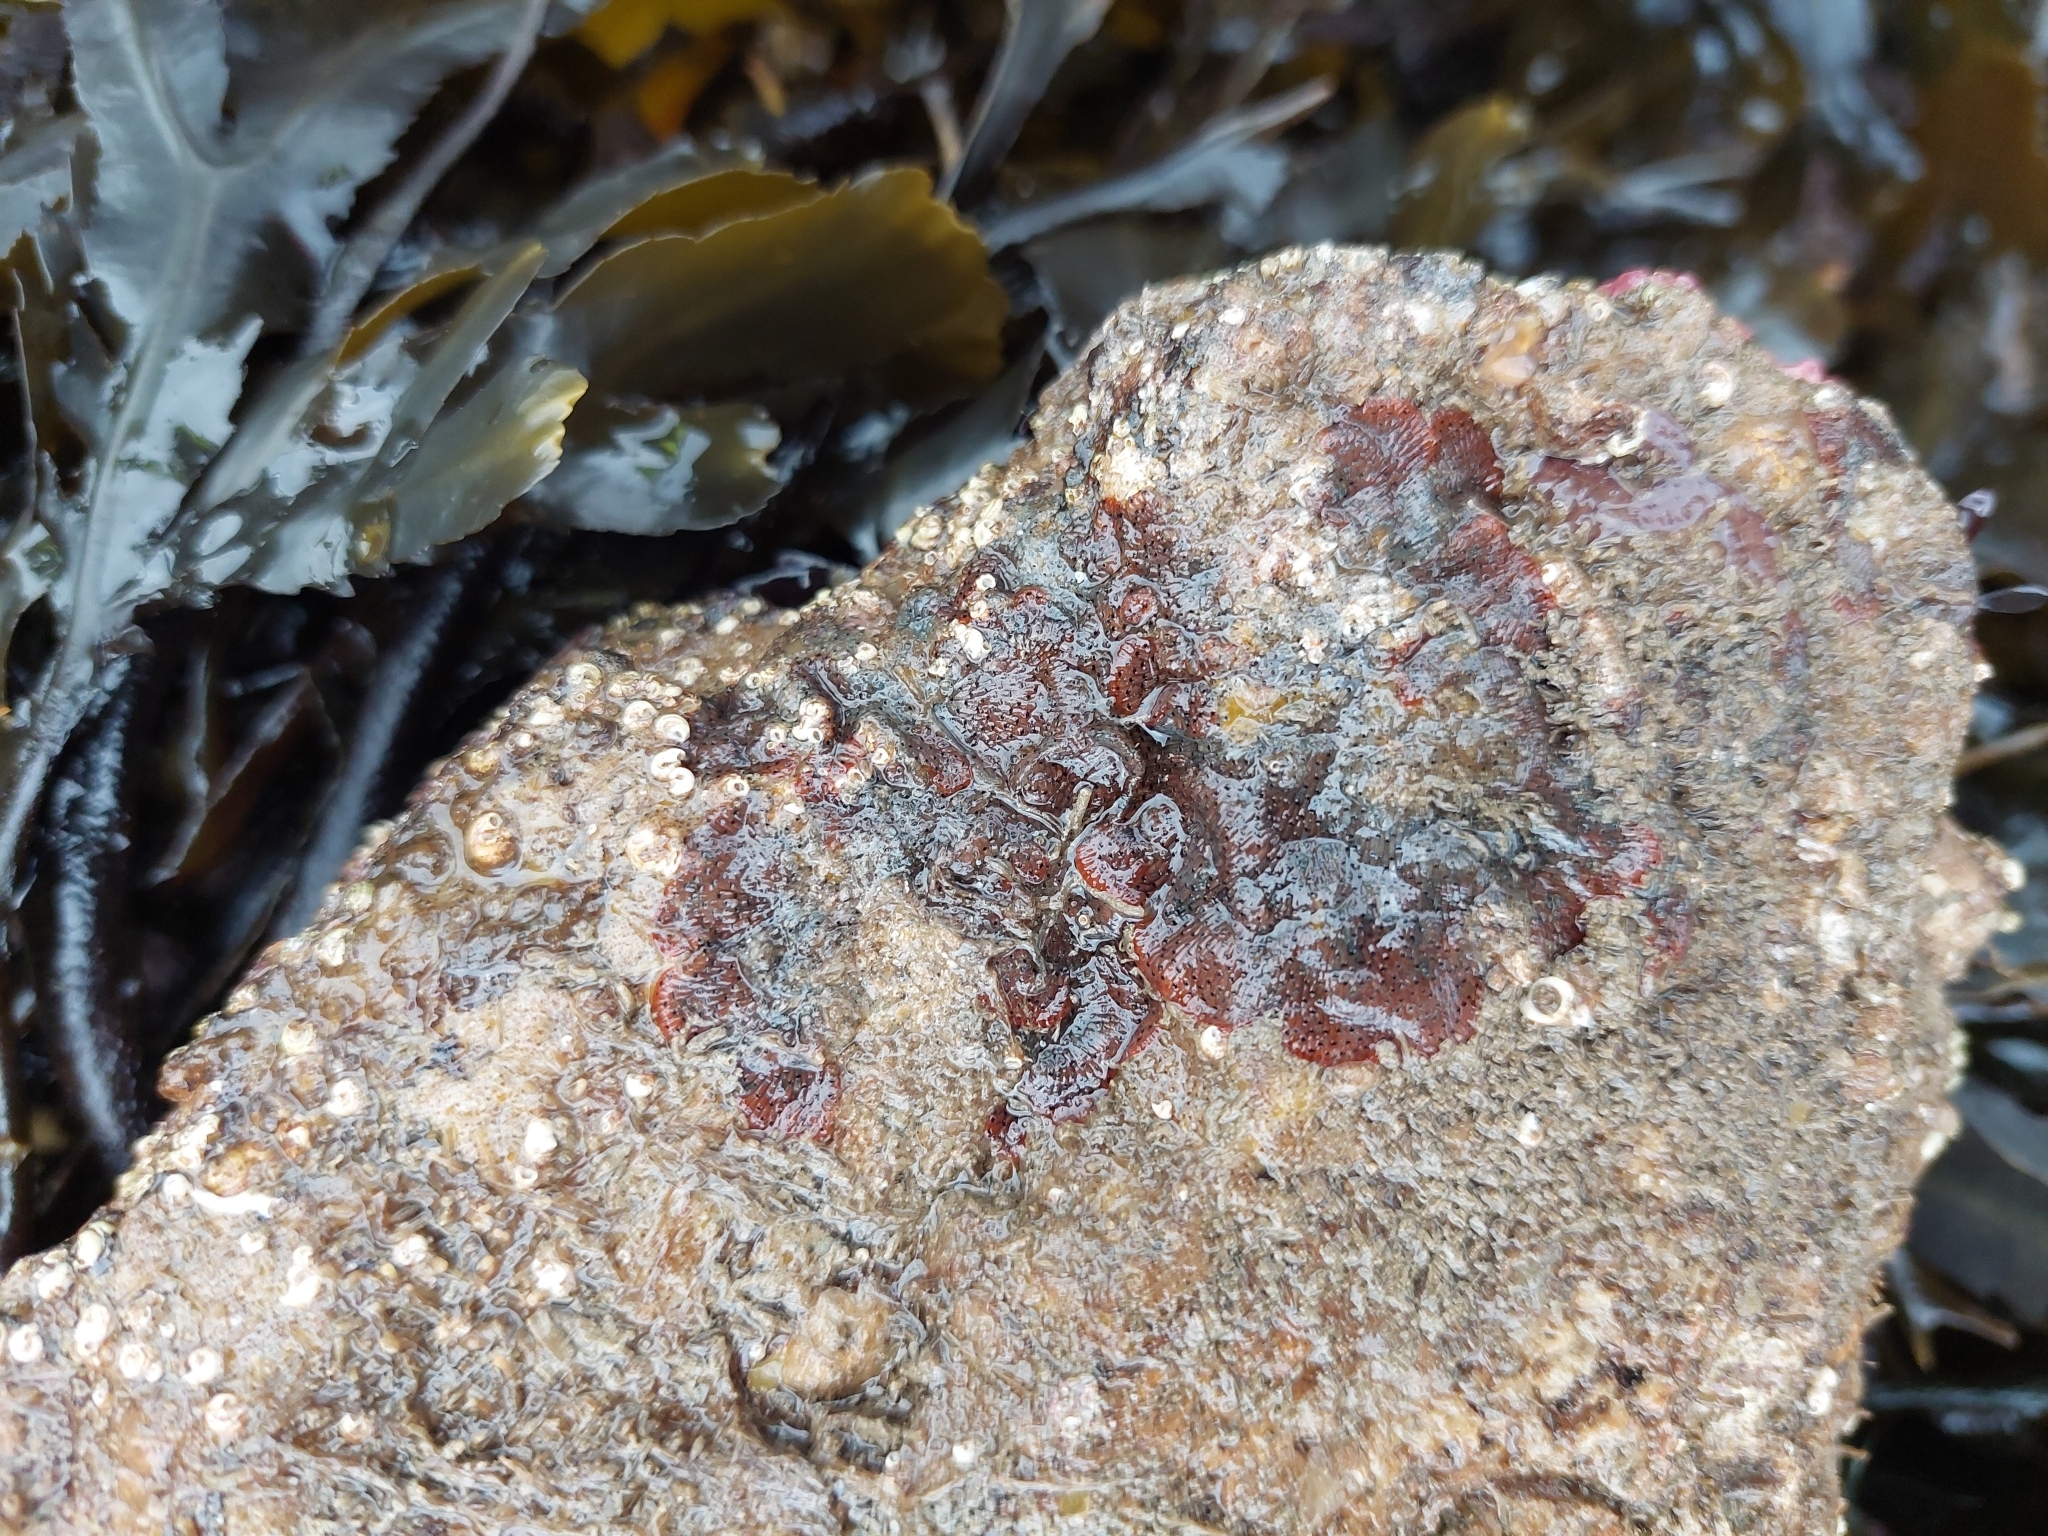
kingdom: Animalia
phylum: Bryozoa
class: Gymnolaemata
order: Cheilostomatida
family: Watersiporidae
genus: Watersipora
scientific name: Watersipora subatra
